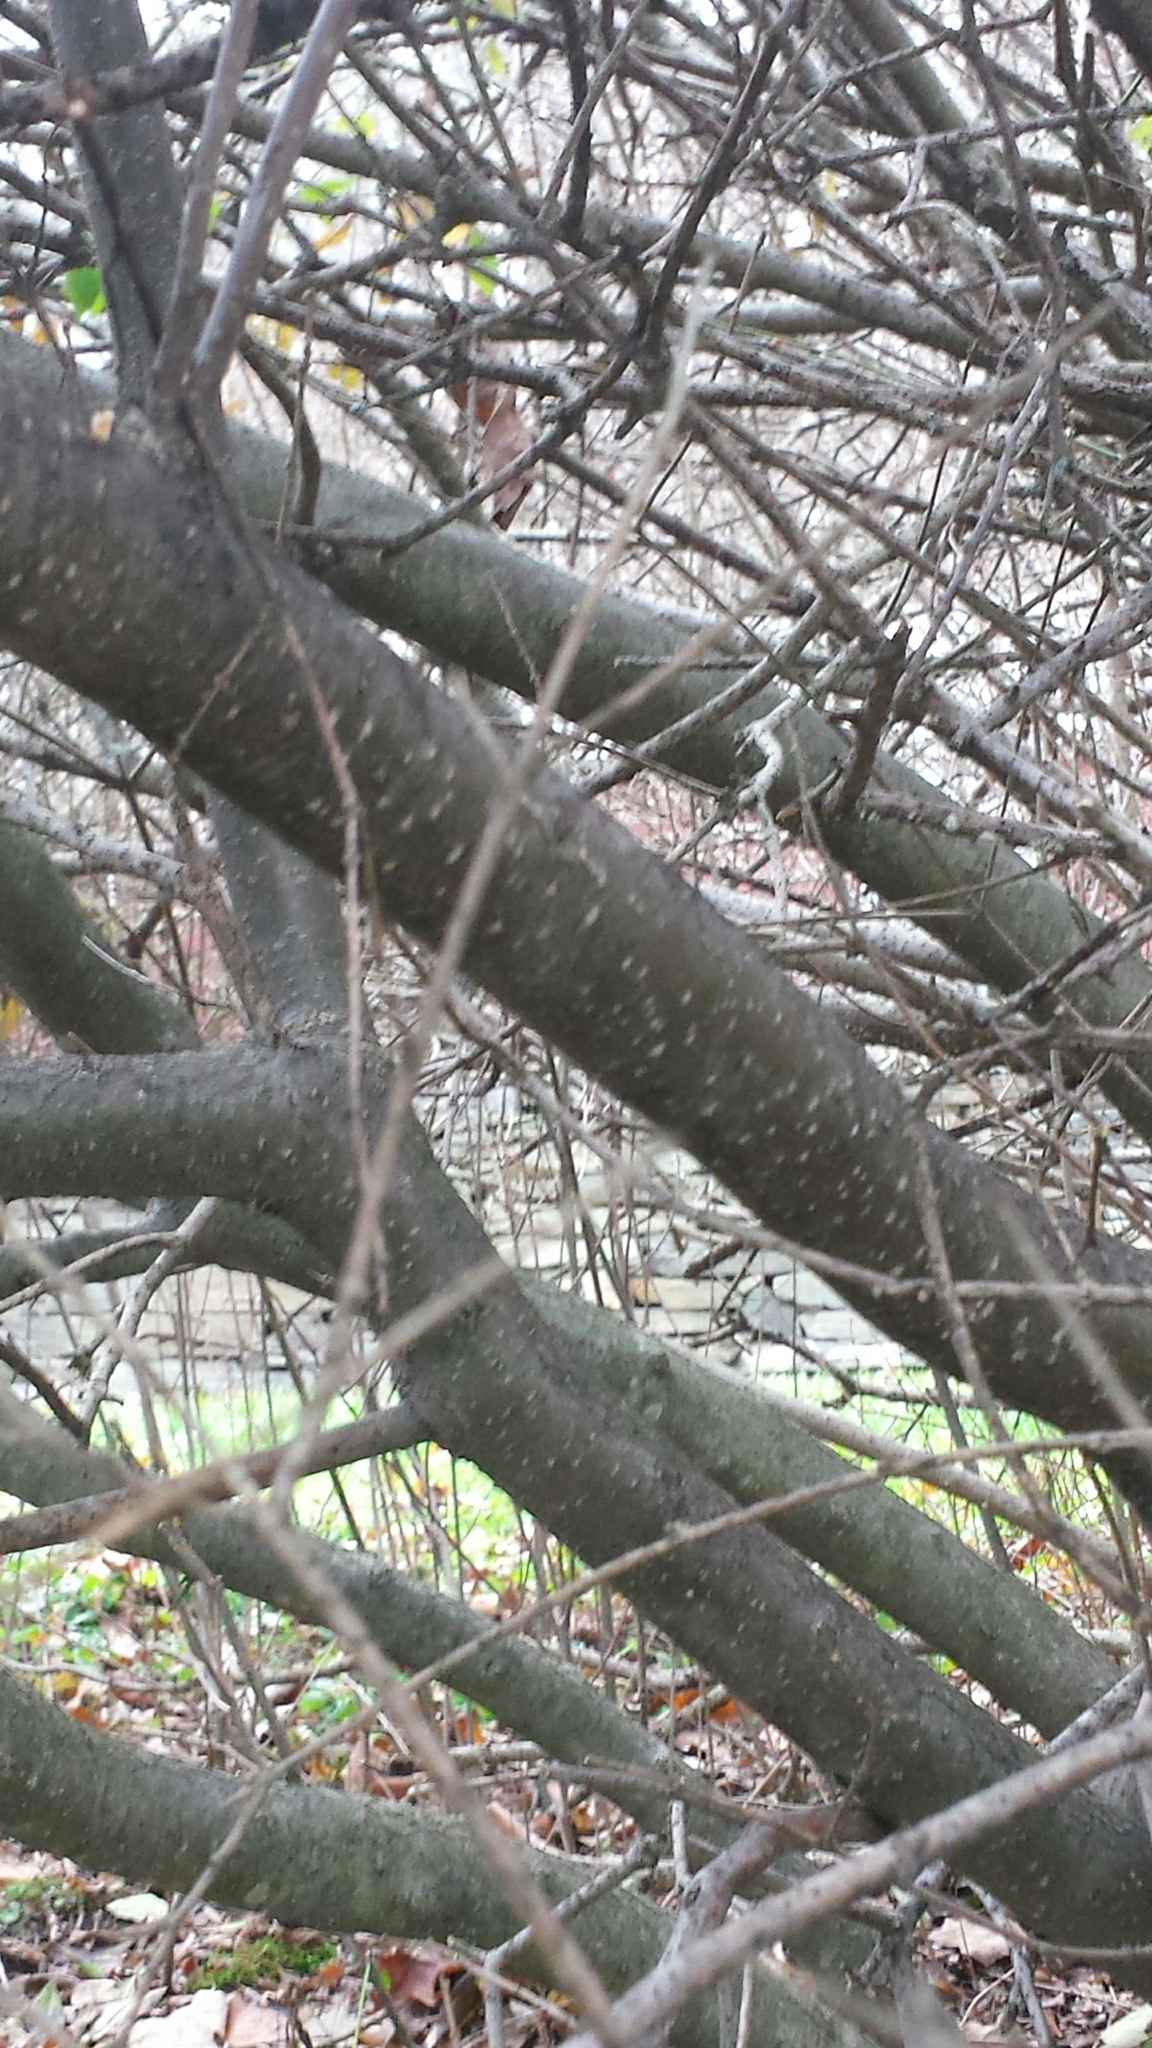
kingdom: Plantae
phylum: Tracheophyta
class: Magnoliopsida
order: Aquifoliales
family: Aquifoliaceae
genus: Ilex
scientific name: Ilex verticillata
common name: Virginia winterberry
